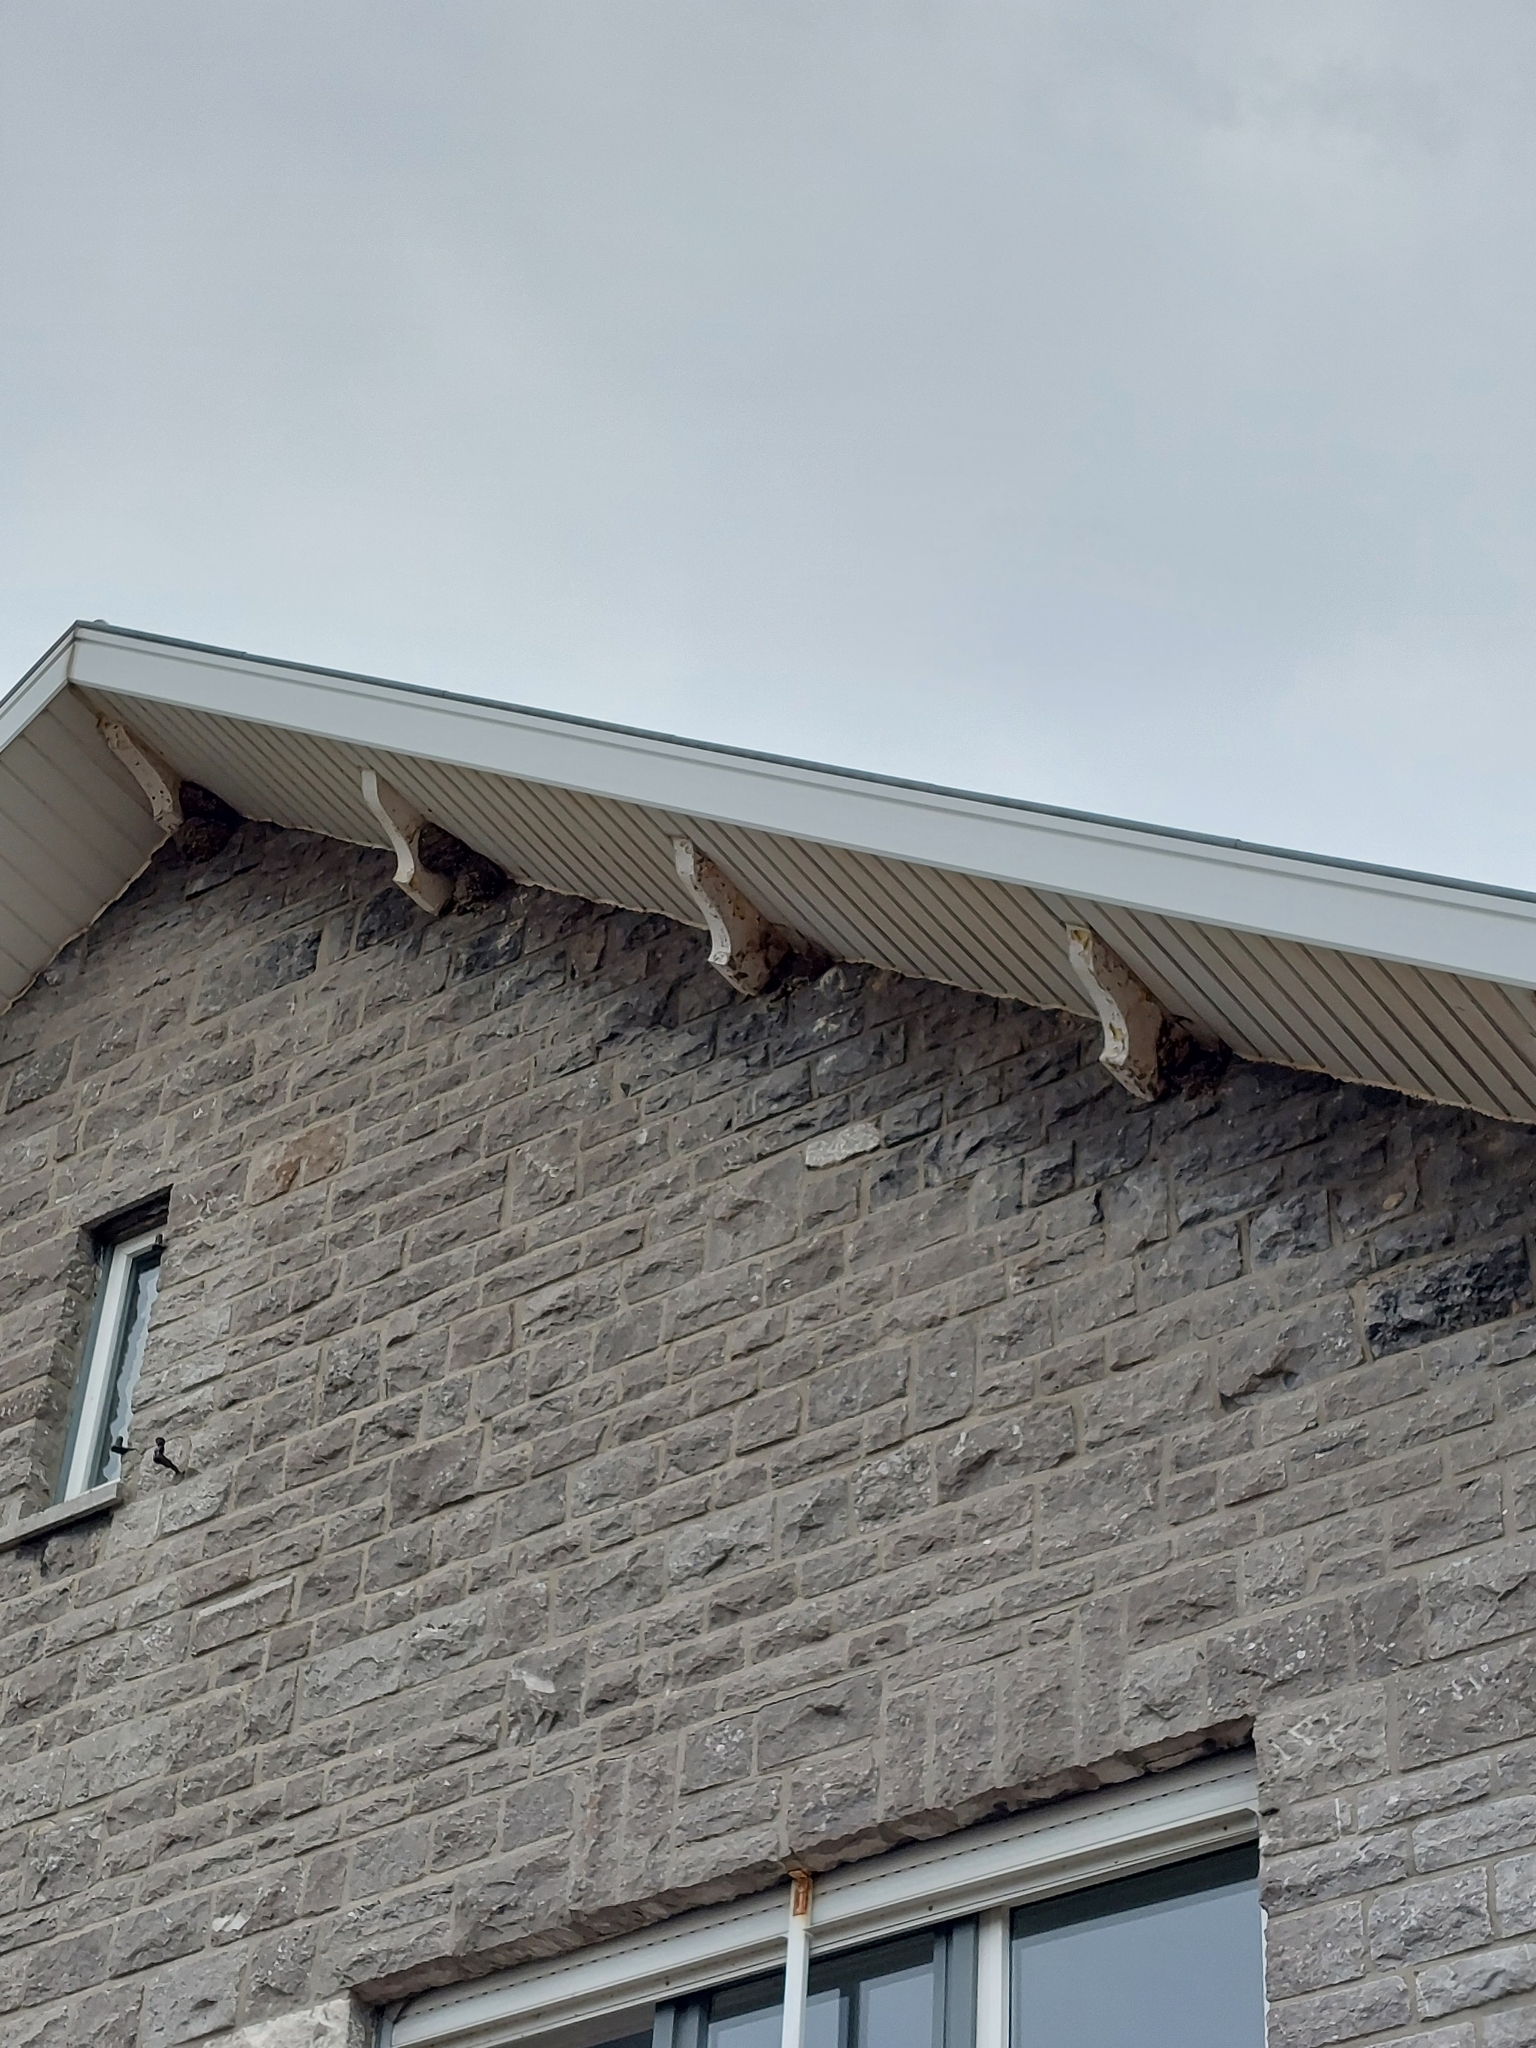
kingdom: Animalia
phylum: Chordata
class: Aves
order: Passeriformes
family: Hirundinidae
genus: Delichon
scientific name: Delichon urbicum
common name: Common house martin
